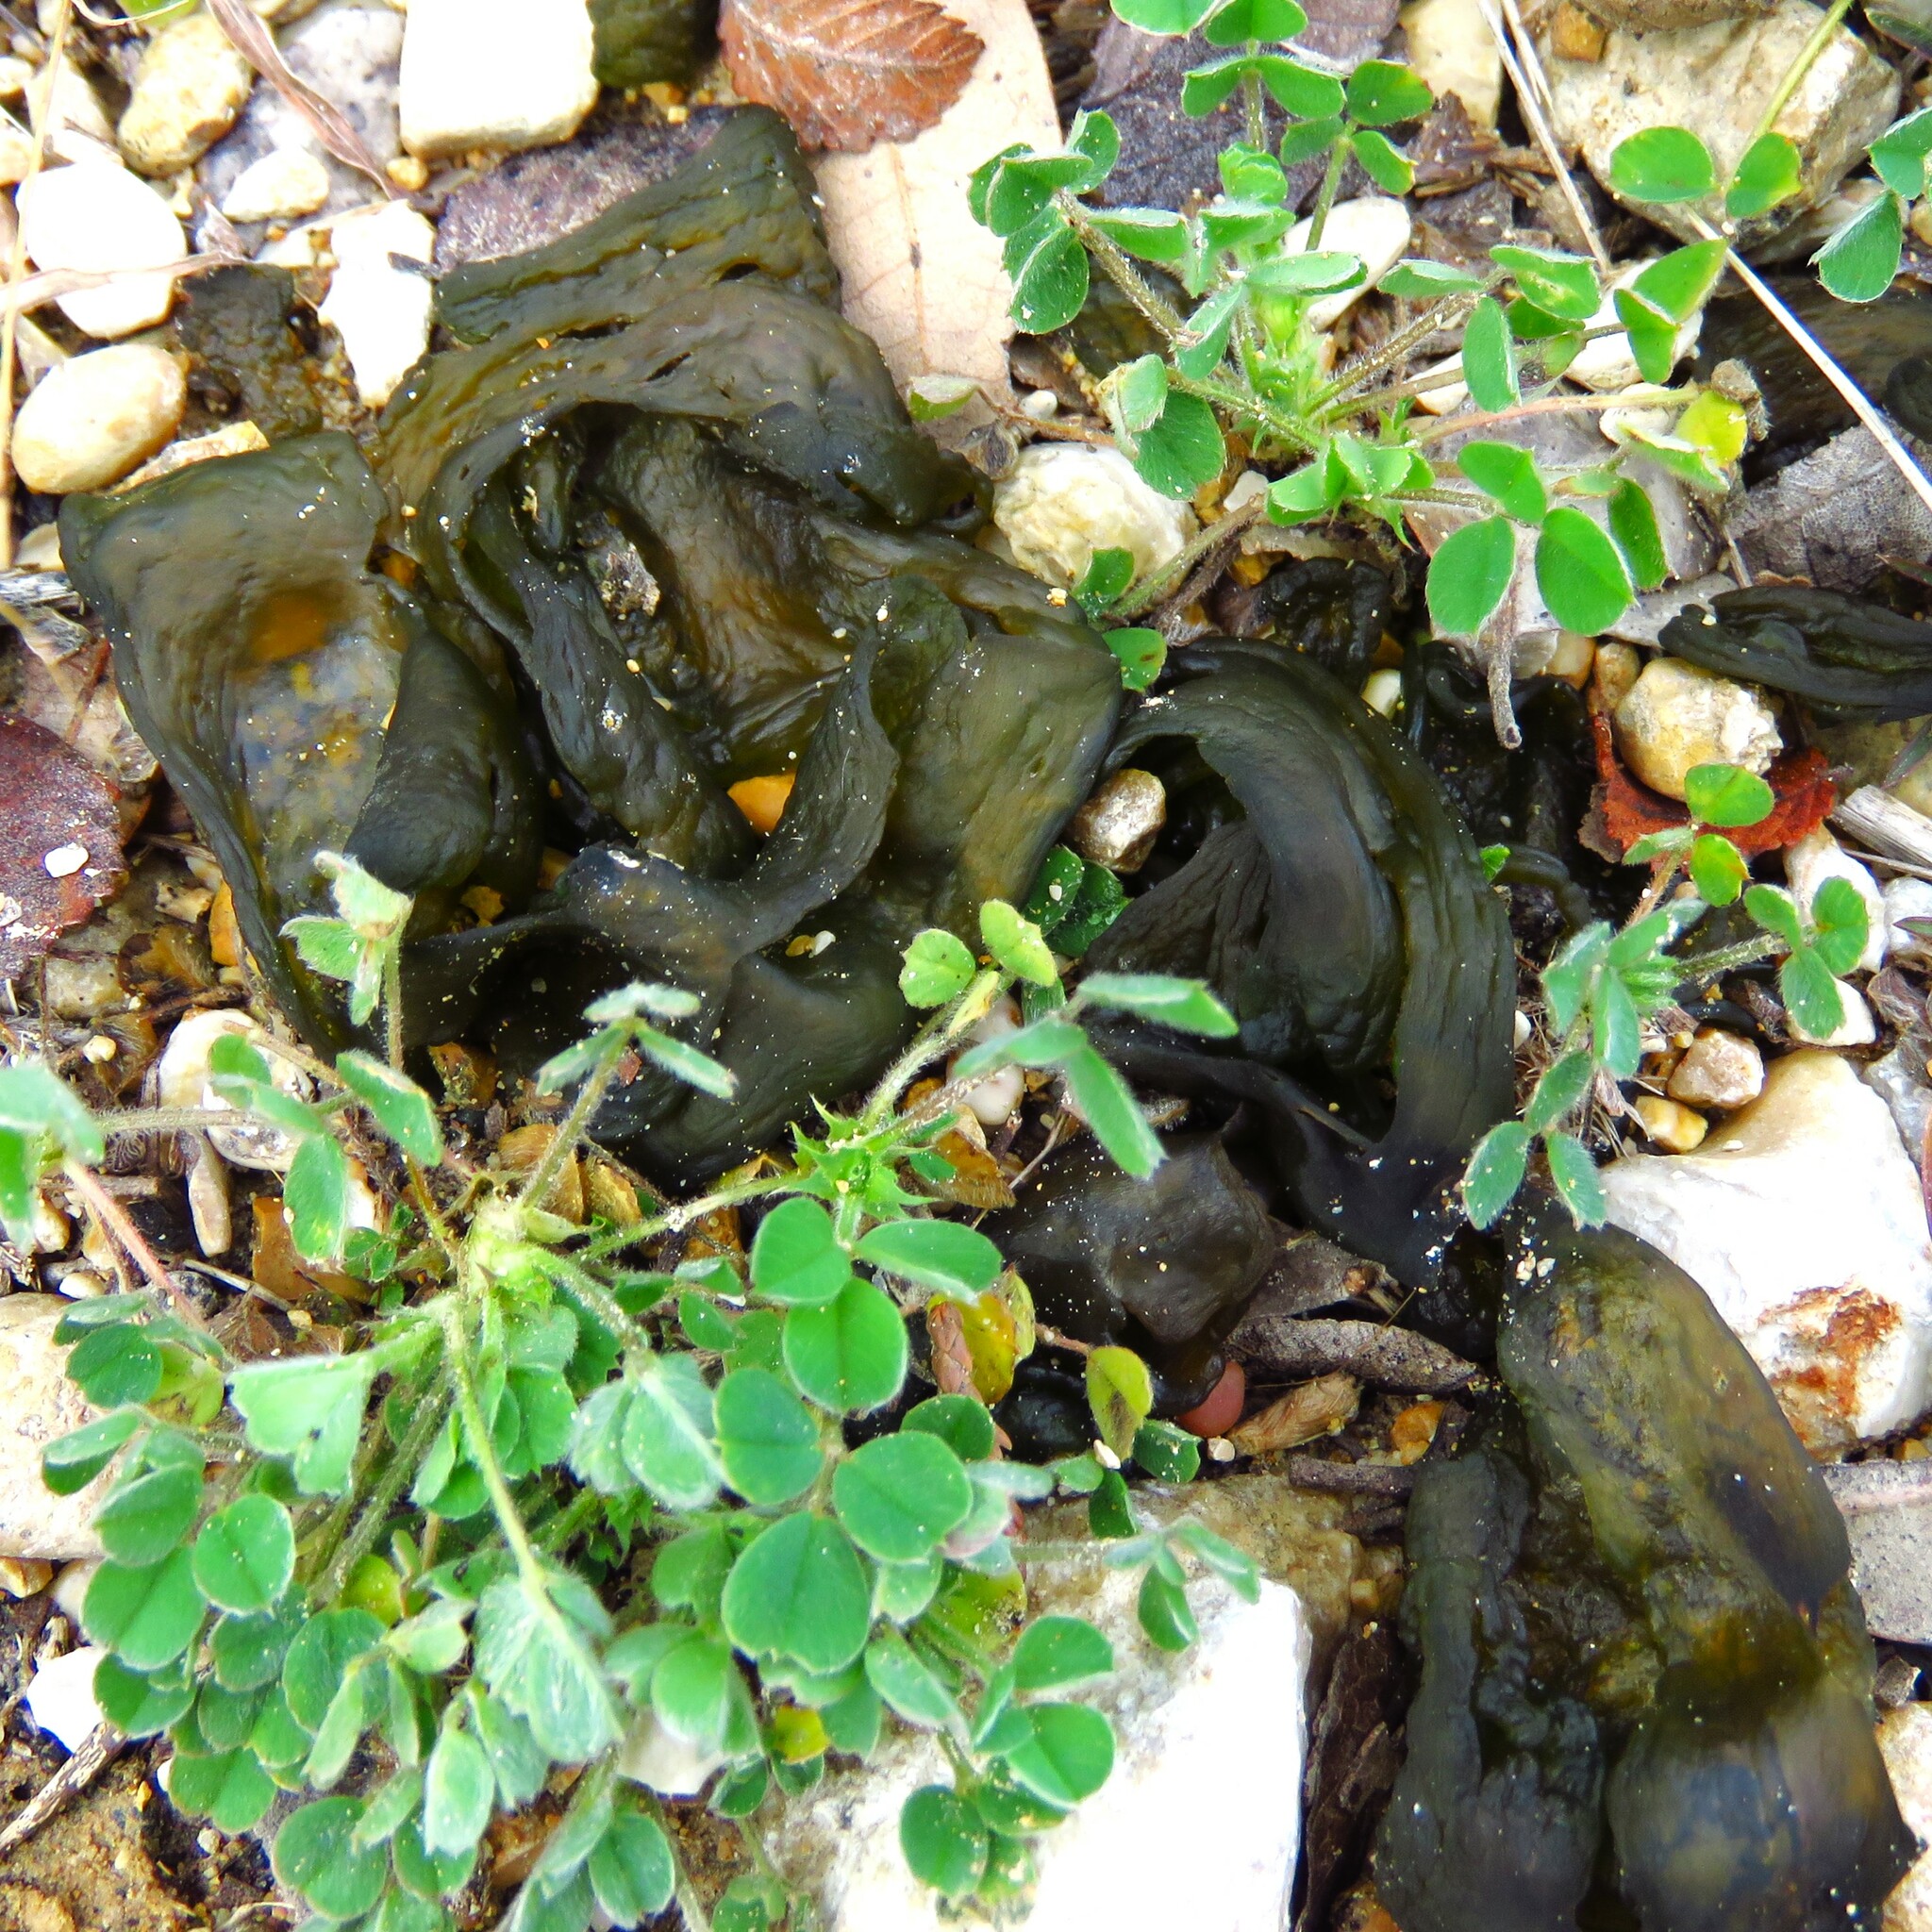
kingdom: Bacteria
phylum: Cyanobacteria
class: Cyanobacteriia
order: Cyanobacteriales
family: Nostocaceae
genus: Nostoc
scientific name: Nostoc commune
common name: Star jelly
